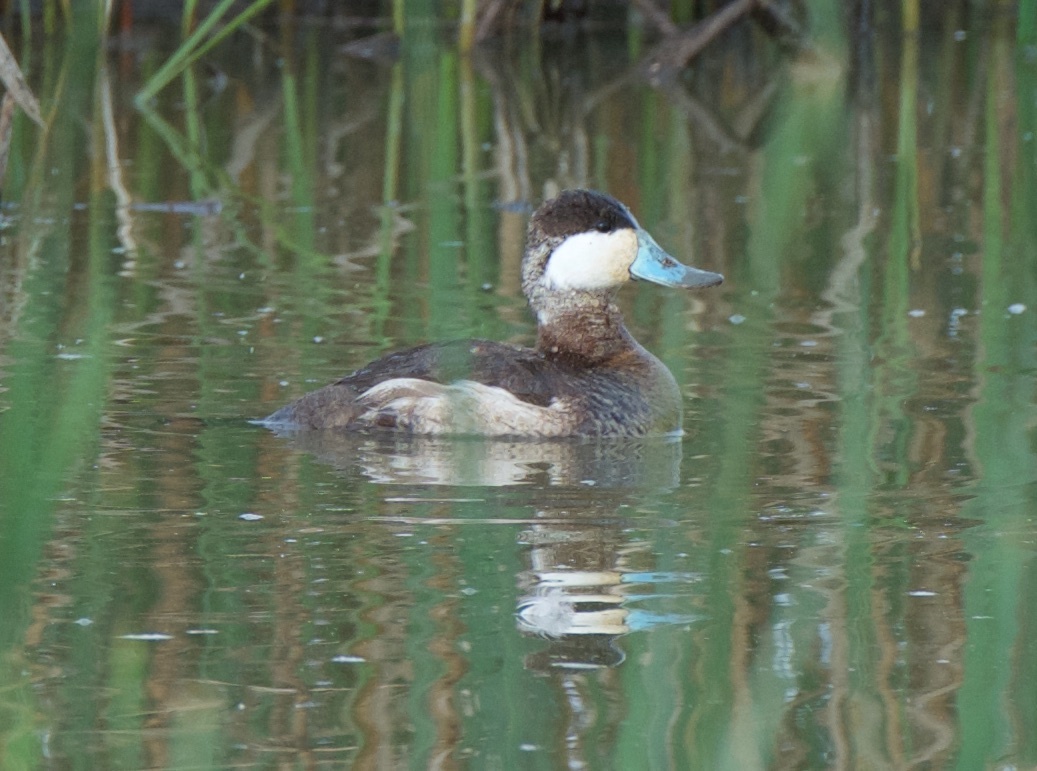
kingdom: Animalia
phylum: Chordata
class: Aves
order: Anseriformes
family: Anatidae
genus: Oxyura
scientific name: Oxyura jamaicensis
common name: Ruddy duck
